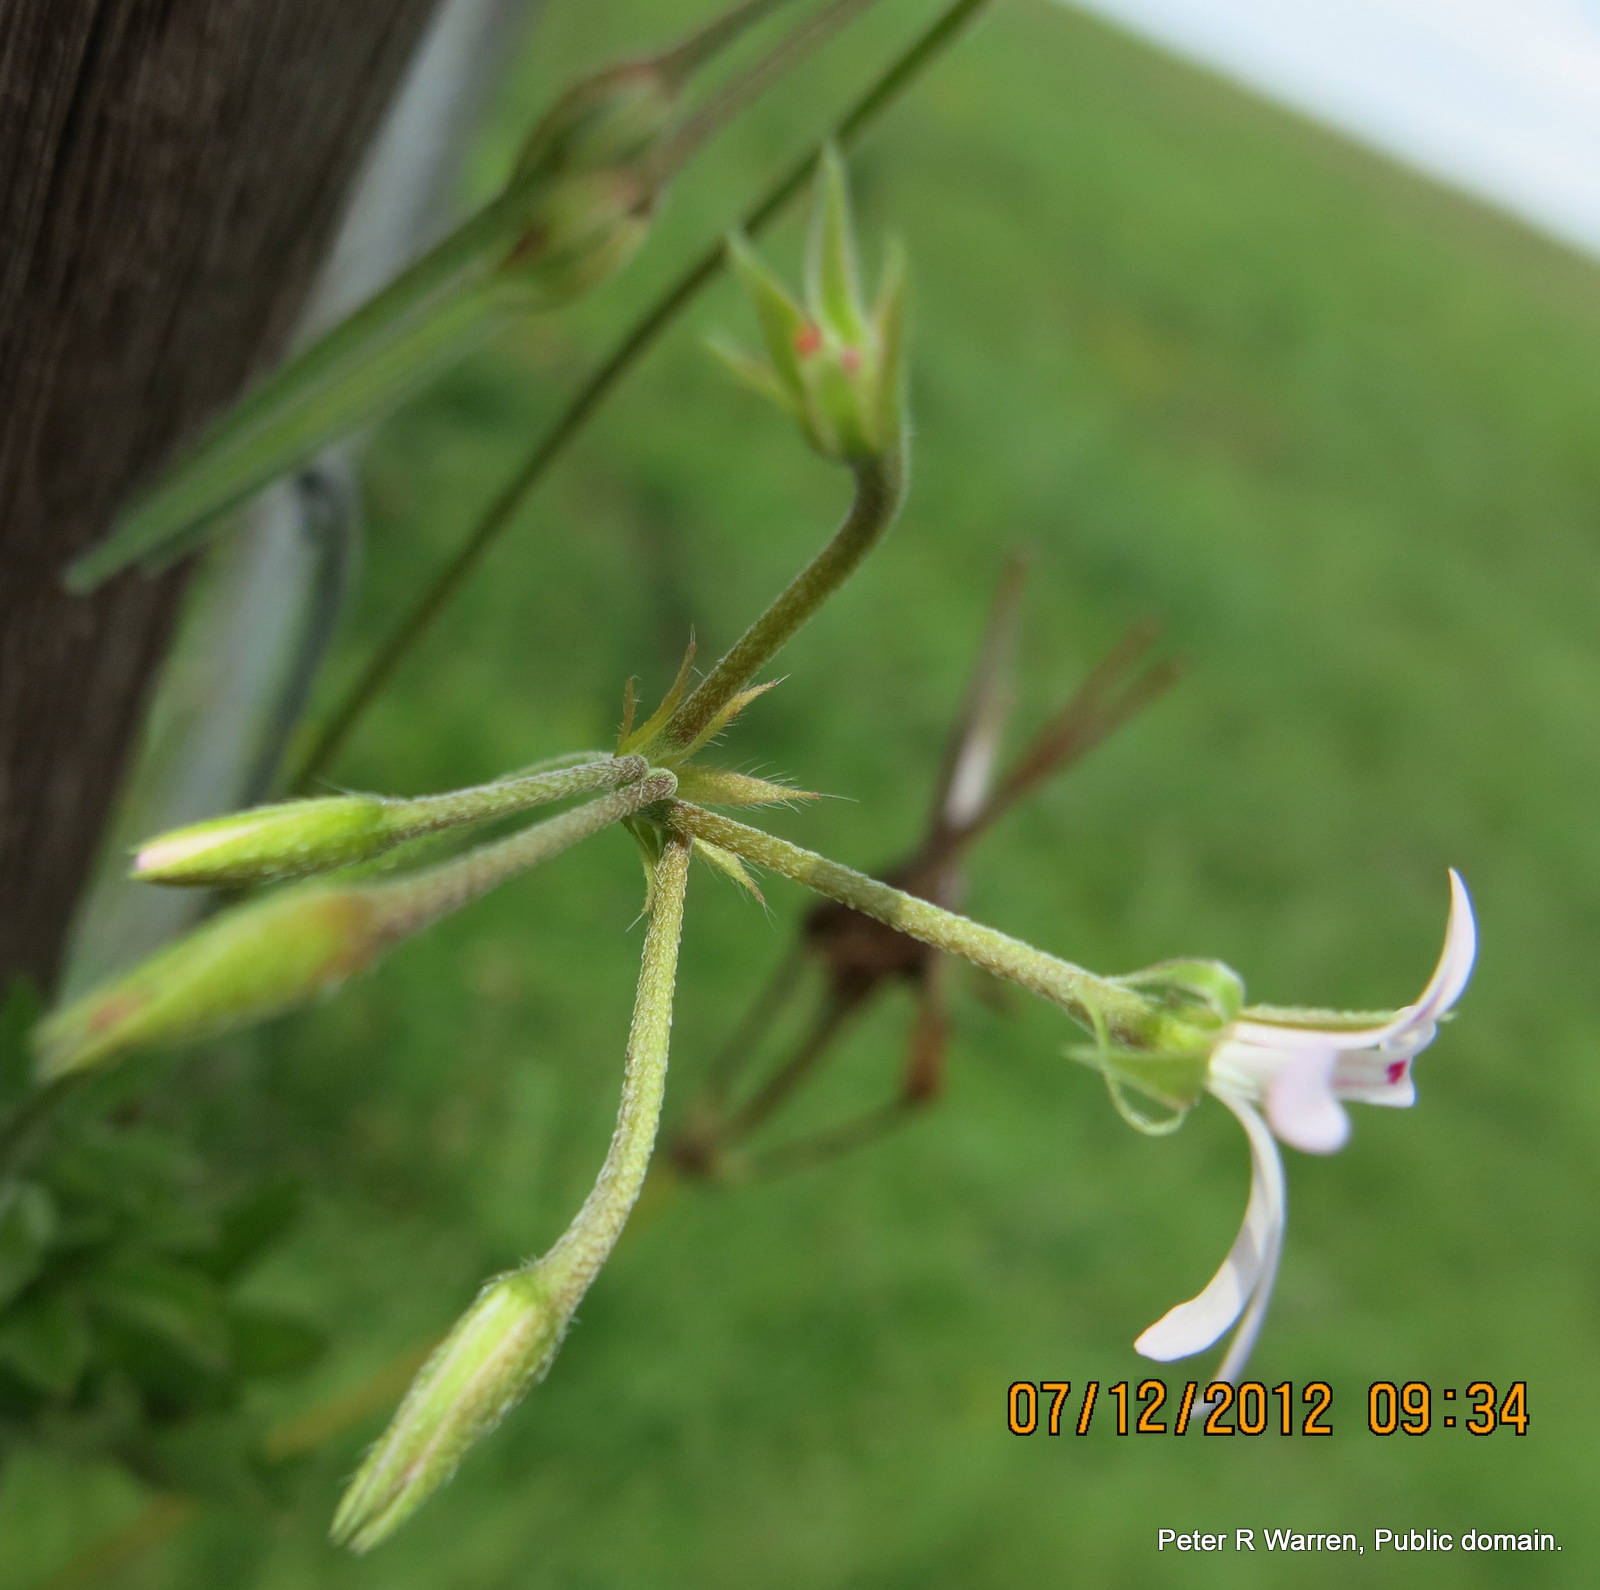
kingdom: Plantae
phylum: Tracheophyta
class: Magnoliopsida
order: Geraniales
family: Geraniaceae
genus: Pelargonium
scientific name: Pelargonium ranunculophyllum
